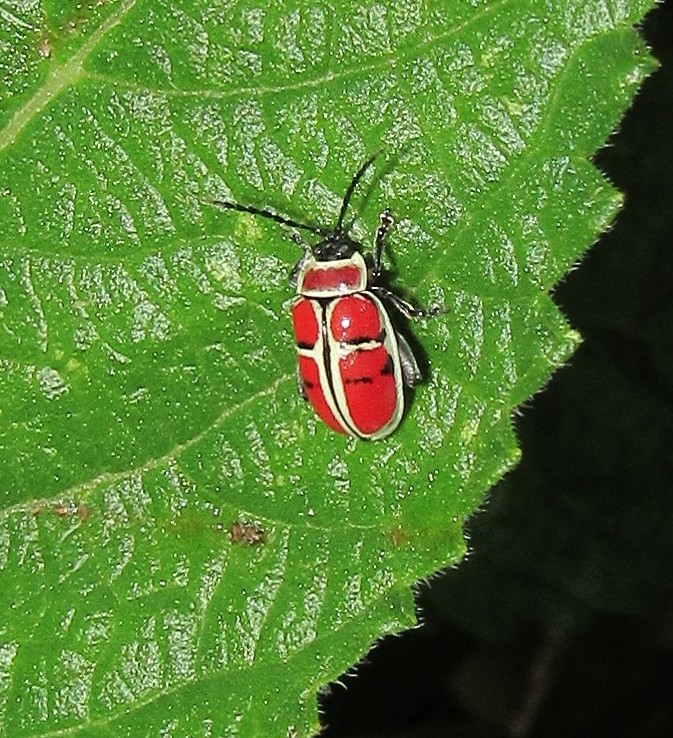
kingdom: Animalia
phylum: Arthropoda
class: Insecta
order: Coleoptera
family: Chrysomelidae
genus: Alagoasa
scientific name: Alagoasa scissa
